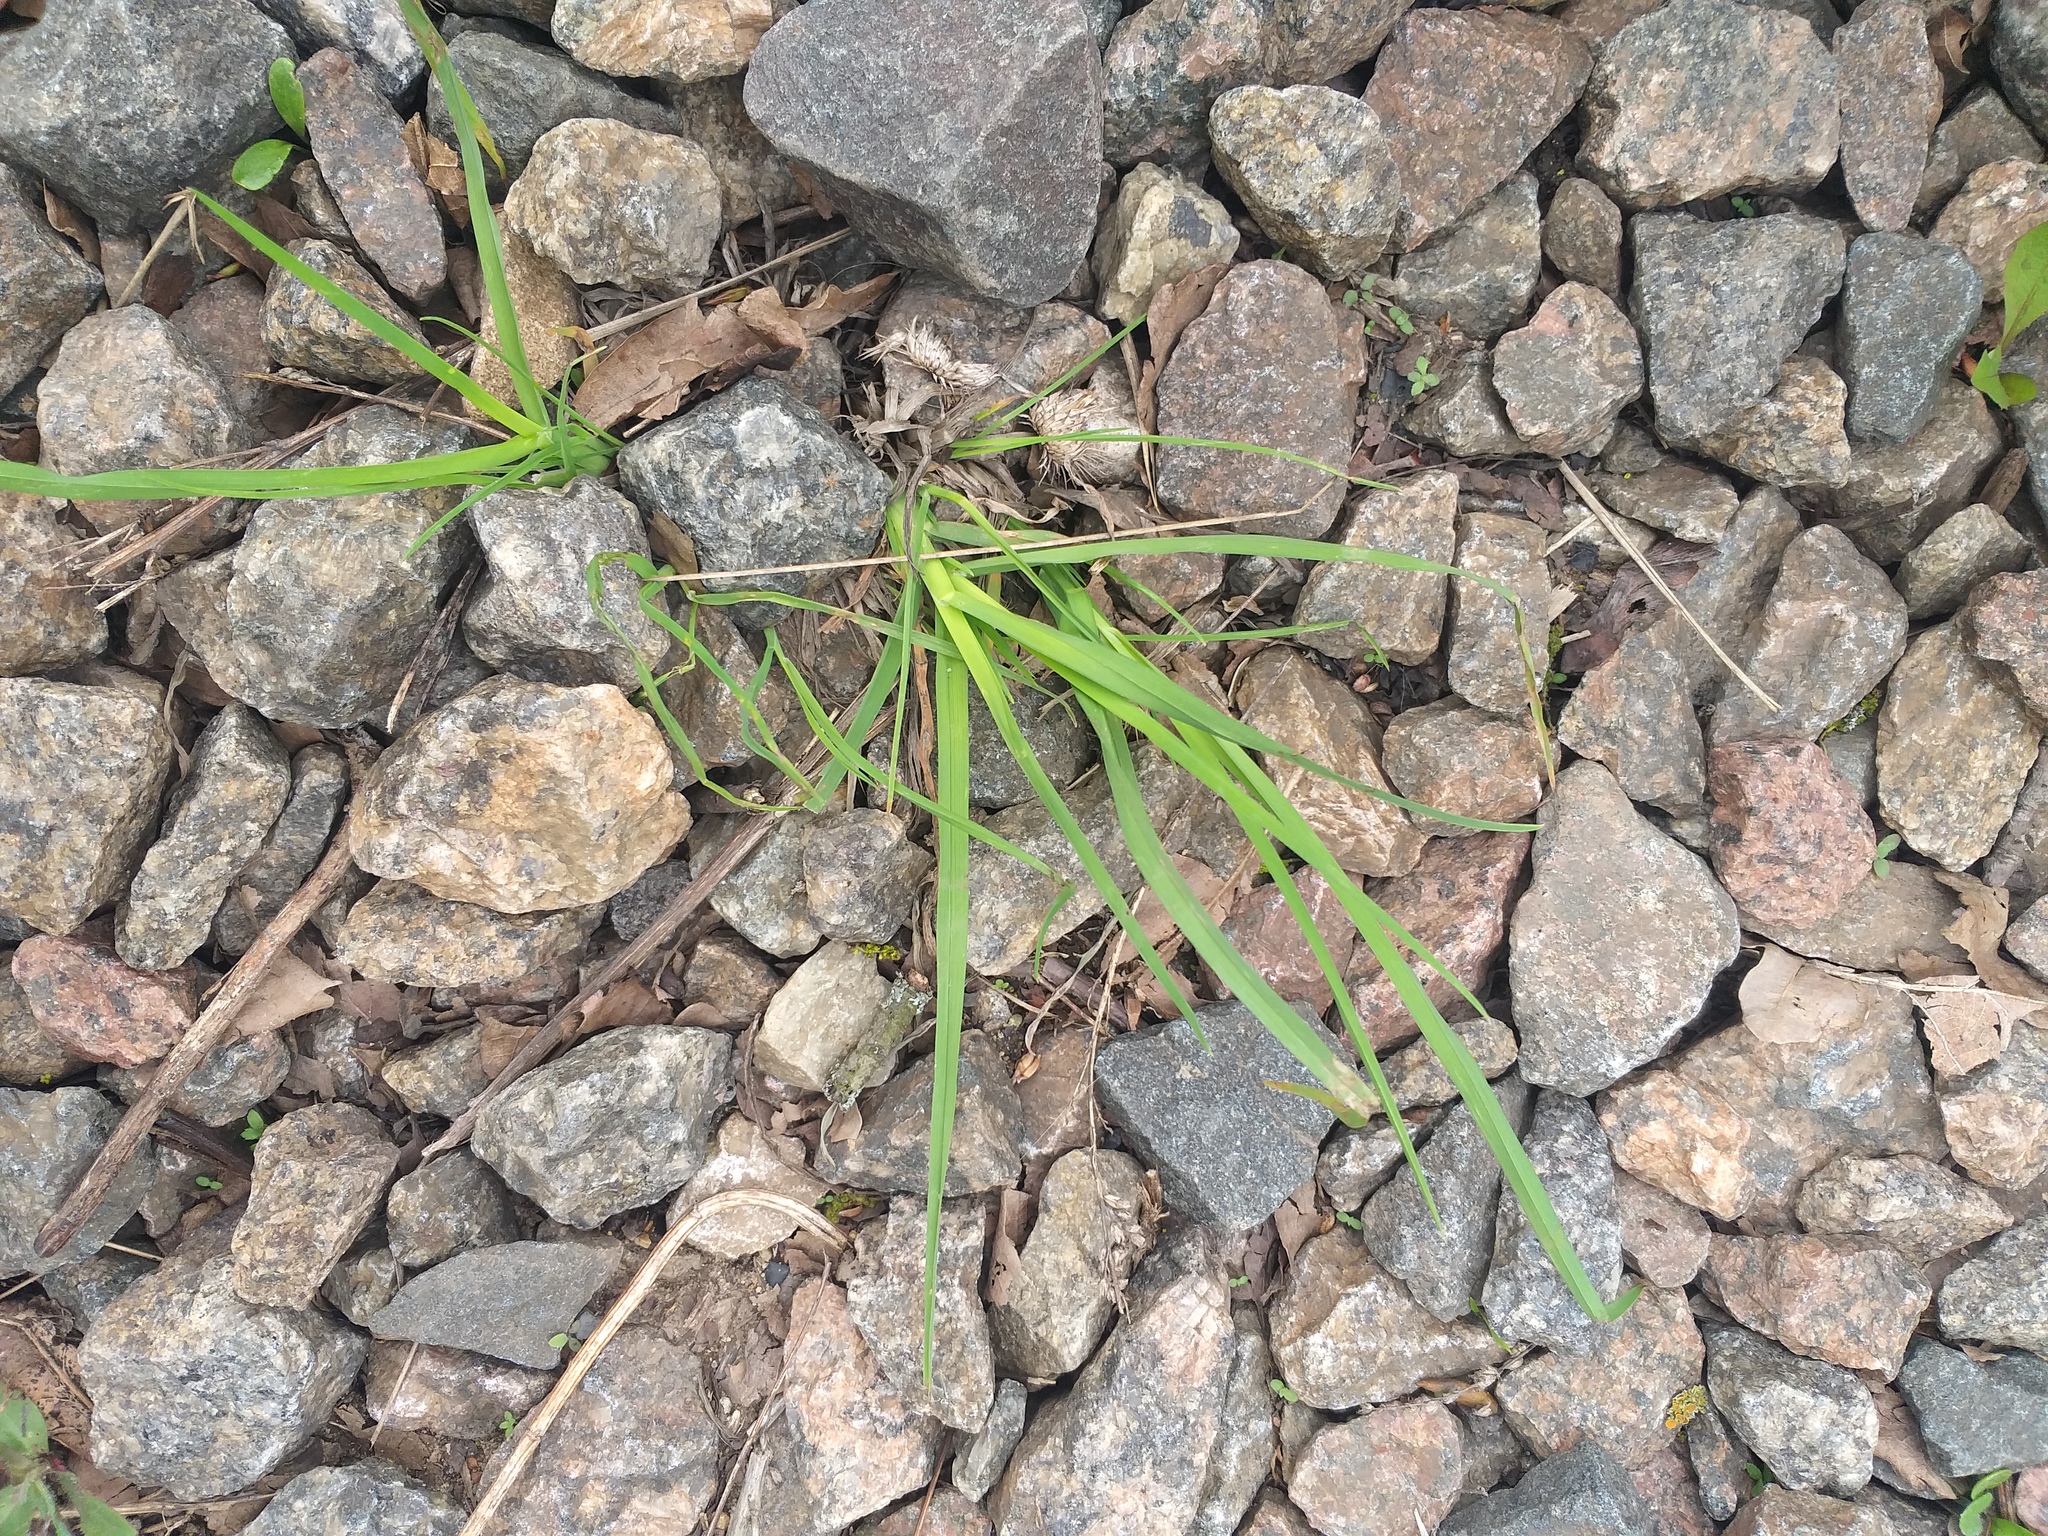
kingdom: Plantae
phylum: Tracheophyta
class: Liliopsida
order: Poales
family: Poaceae
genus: Dactylis
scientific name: Dactylis glomerata
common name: Orchardgrass
